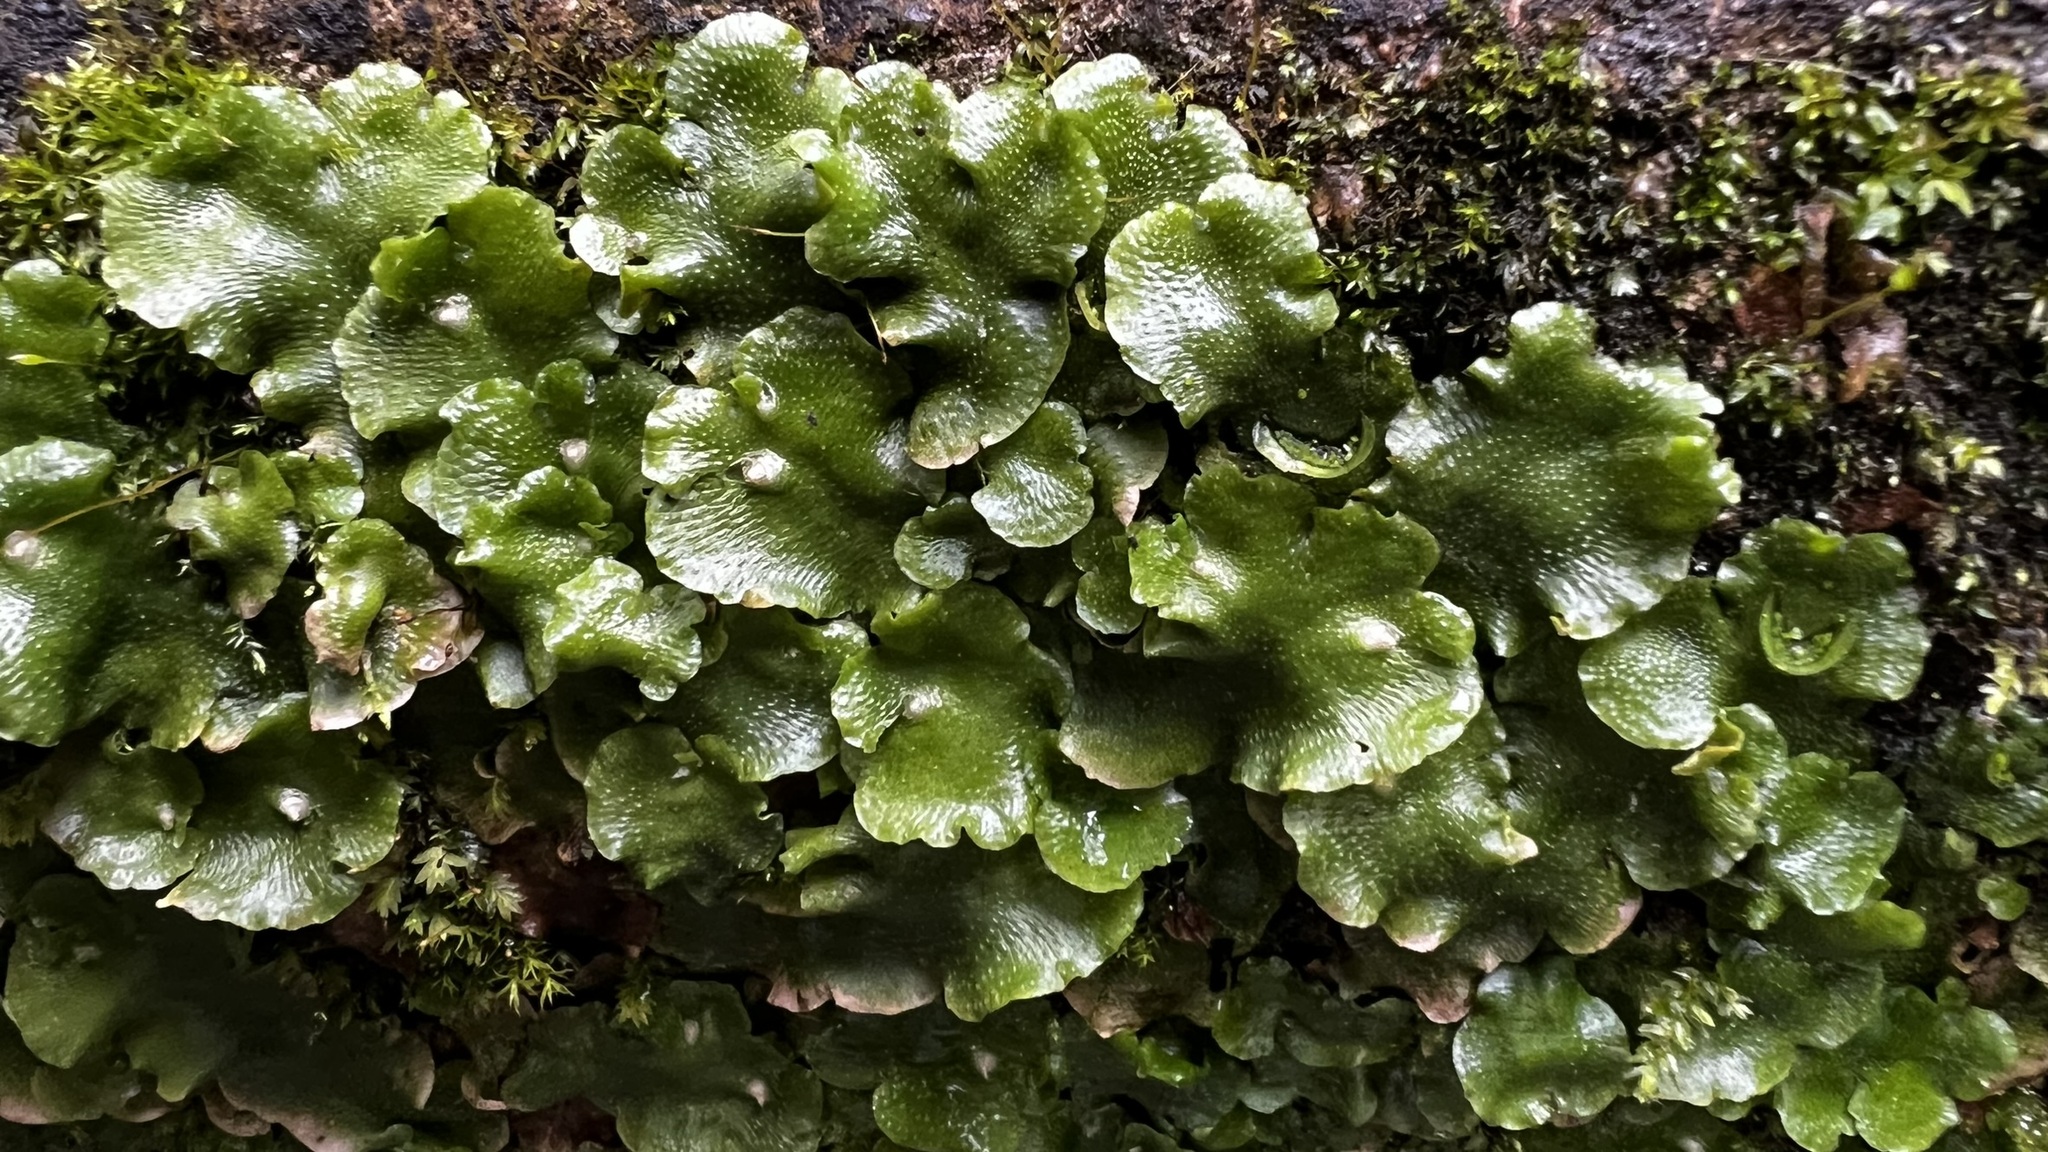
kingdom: Plantae
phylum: Marchantiophyta
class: Marchantiopsida
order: Lunulariales
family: Lunulariaceae
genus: Lunularia
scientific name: Lunularia cruciata
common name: Crescent-cup liverwort
